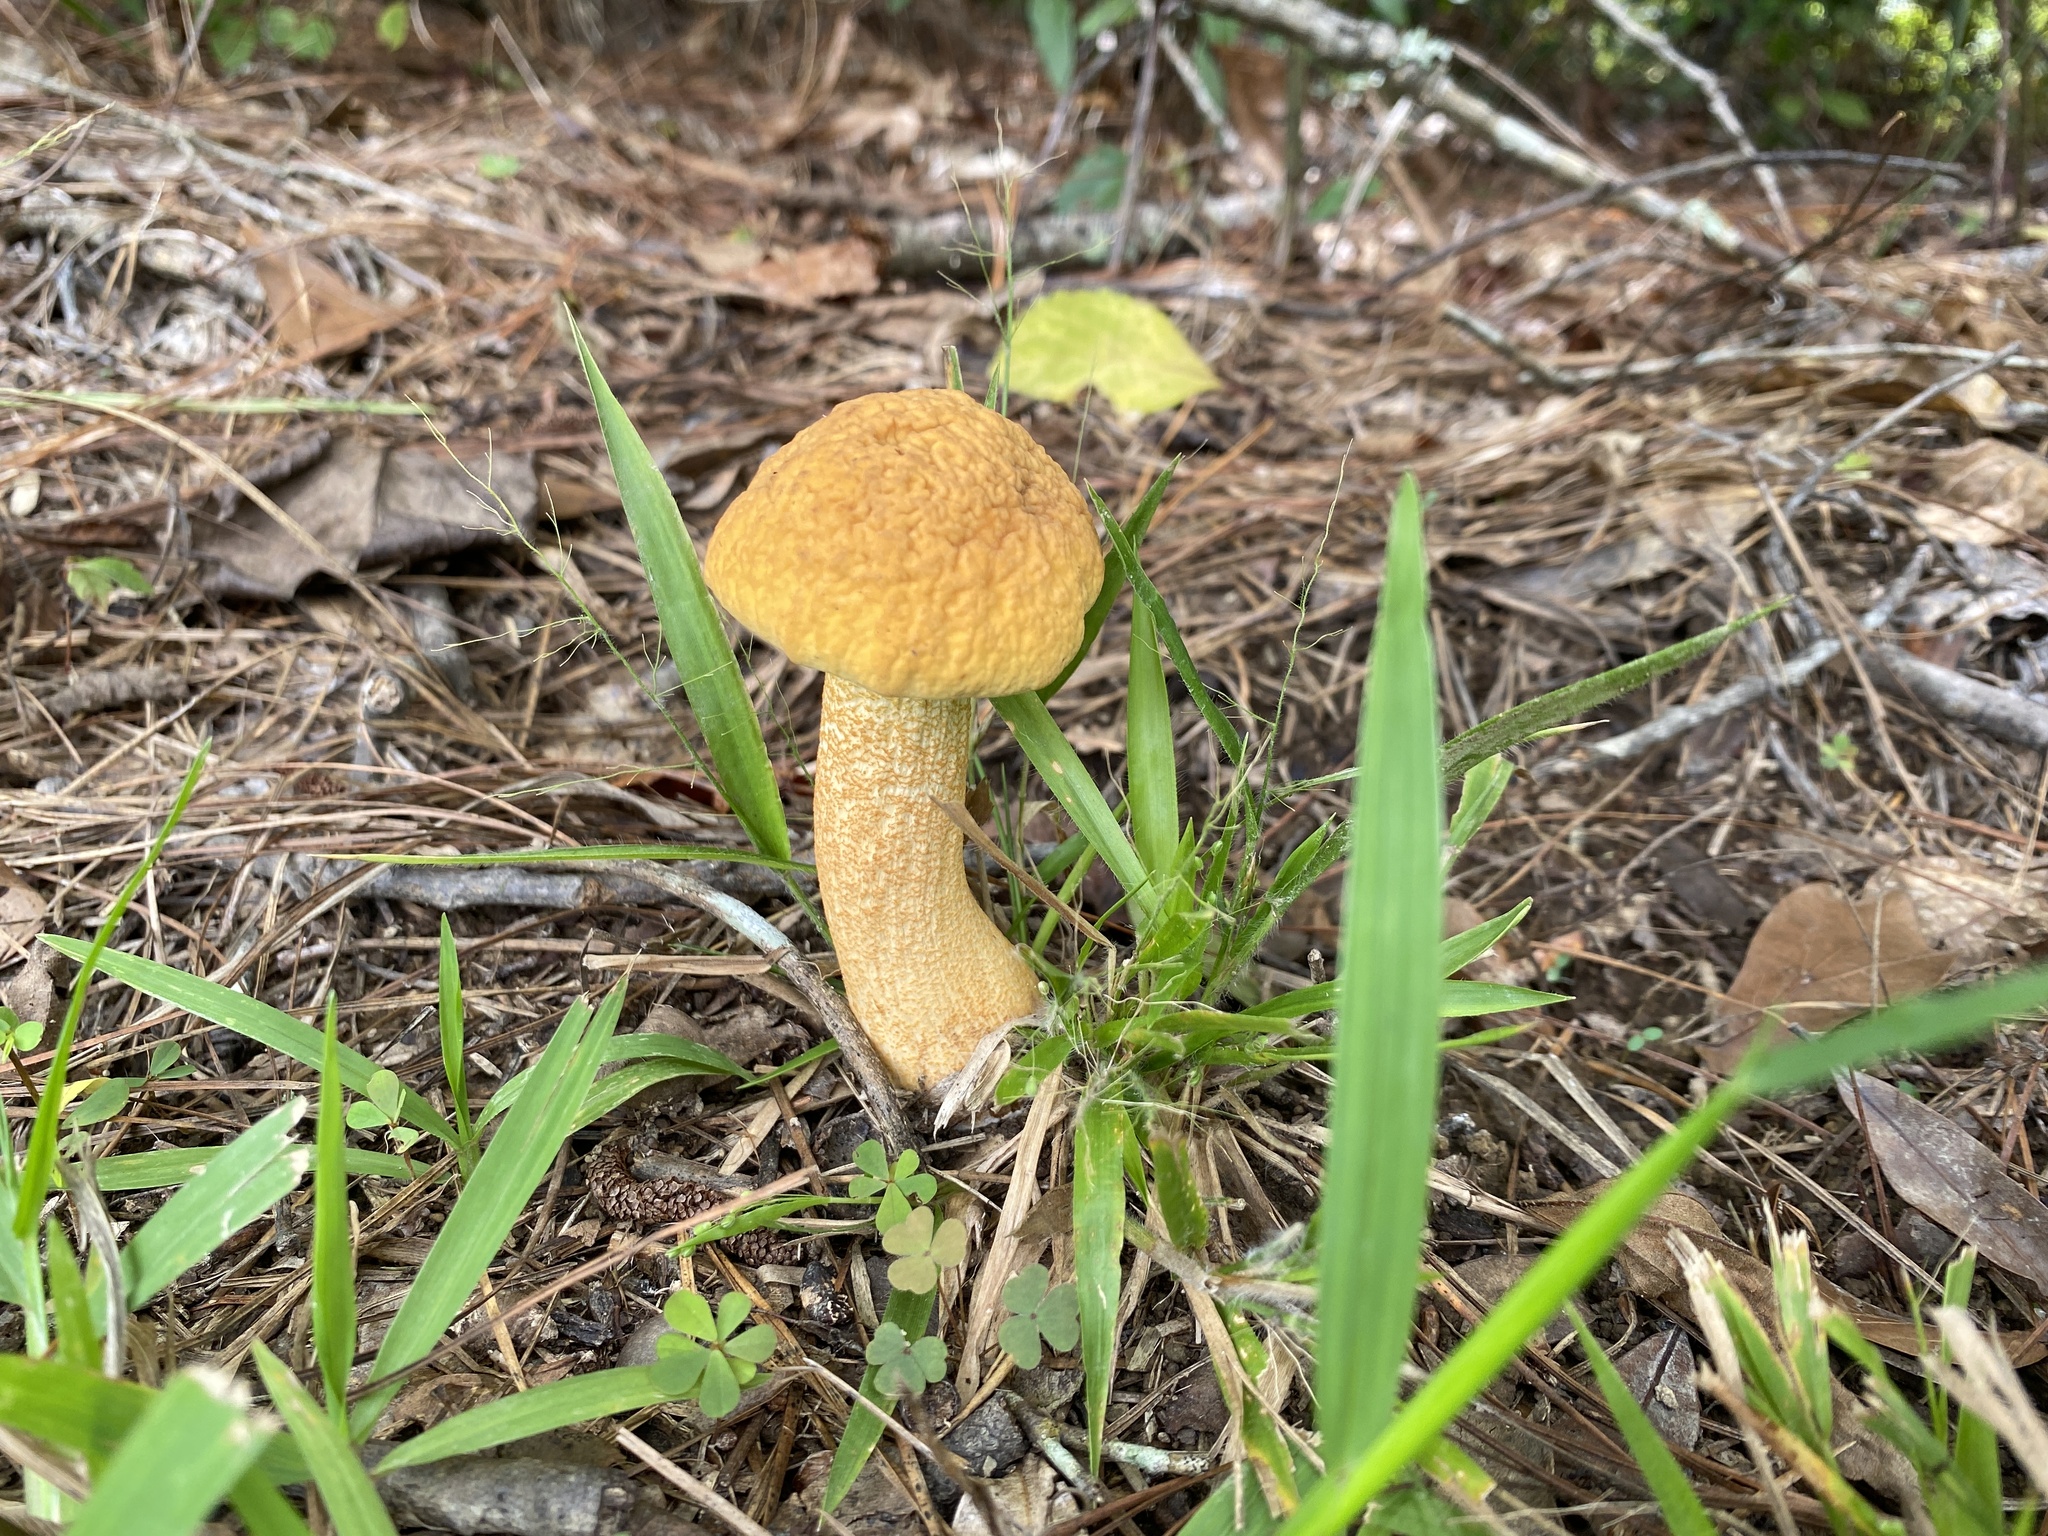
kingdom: Fungi
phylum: Basidiomycota
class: Agaricomycetes
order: Boletales
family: Boletaceae
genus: Leccinellum
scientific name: Leccinellum rugosiceps
